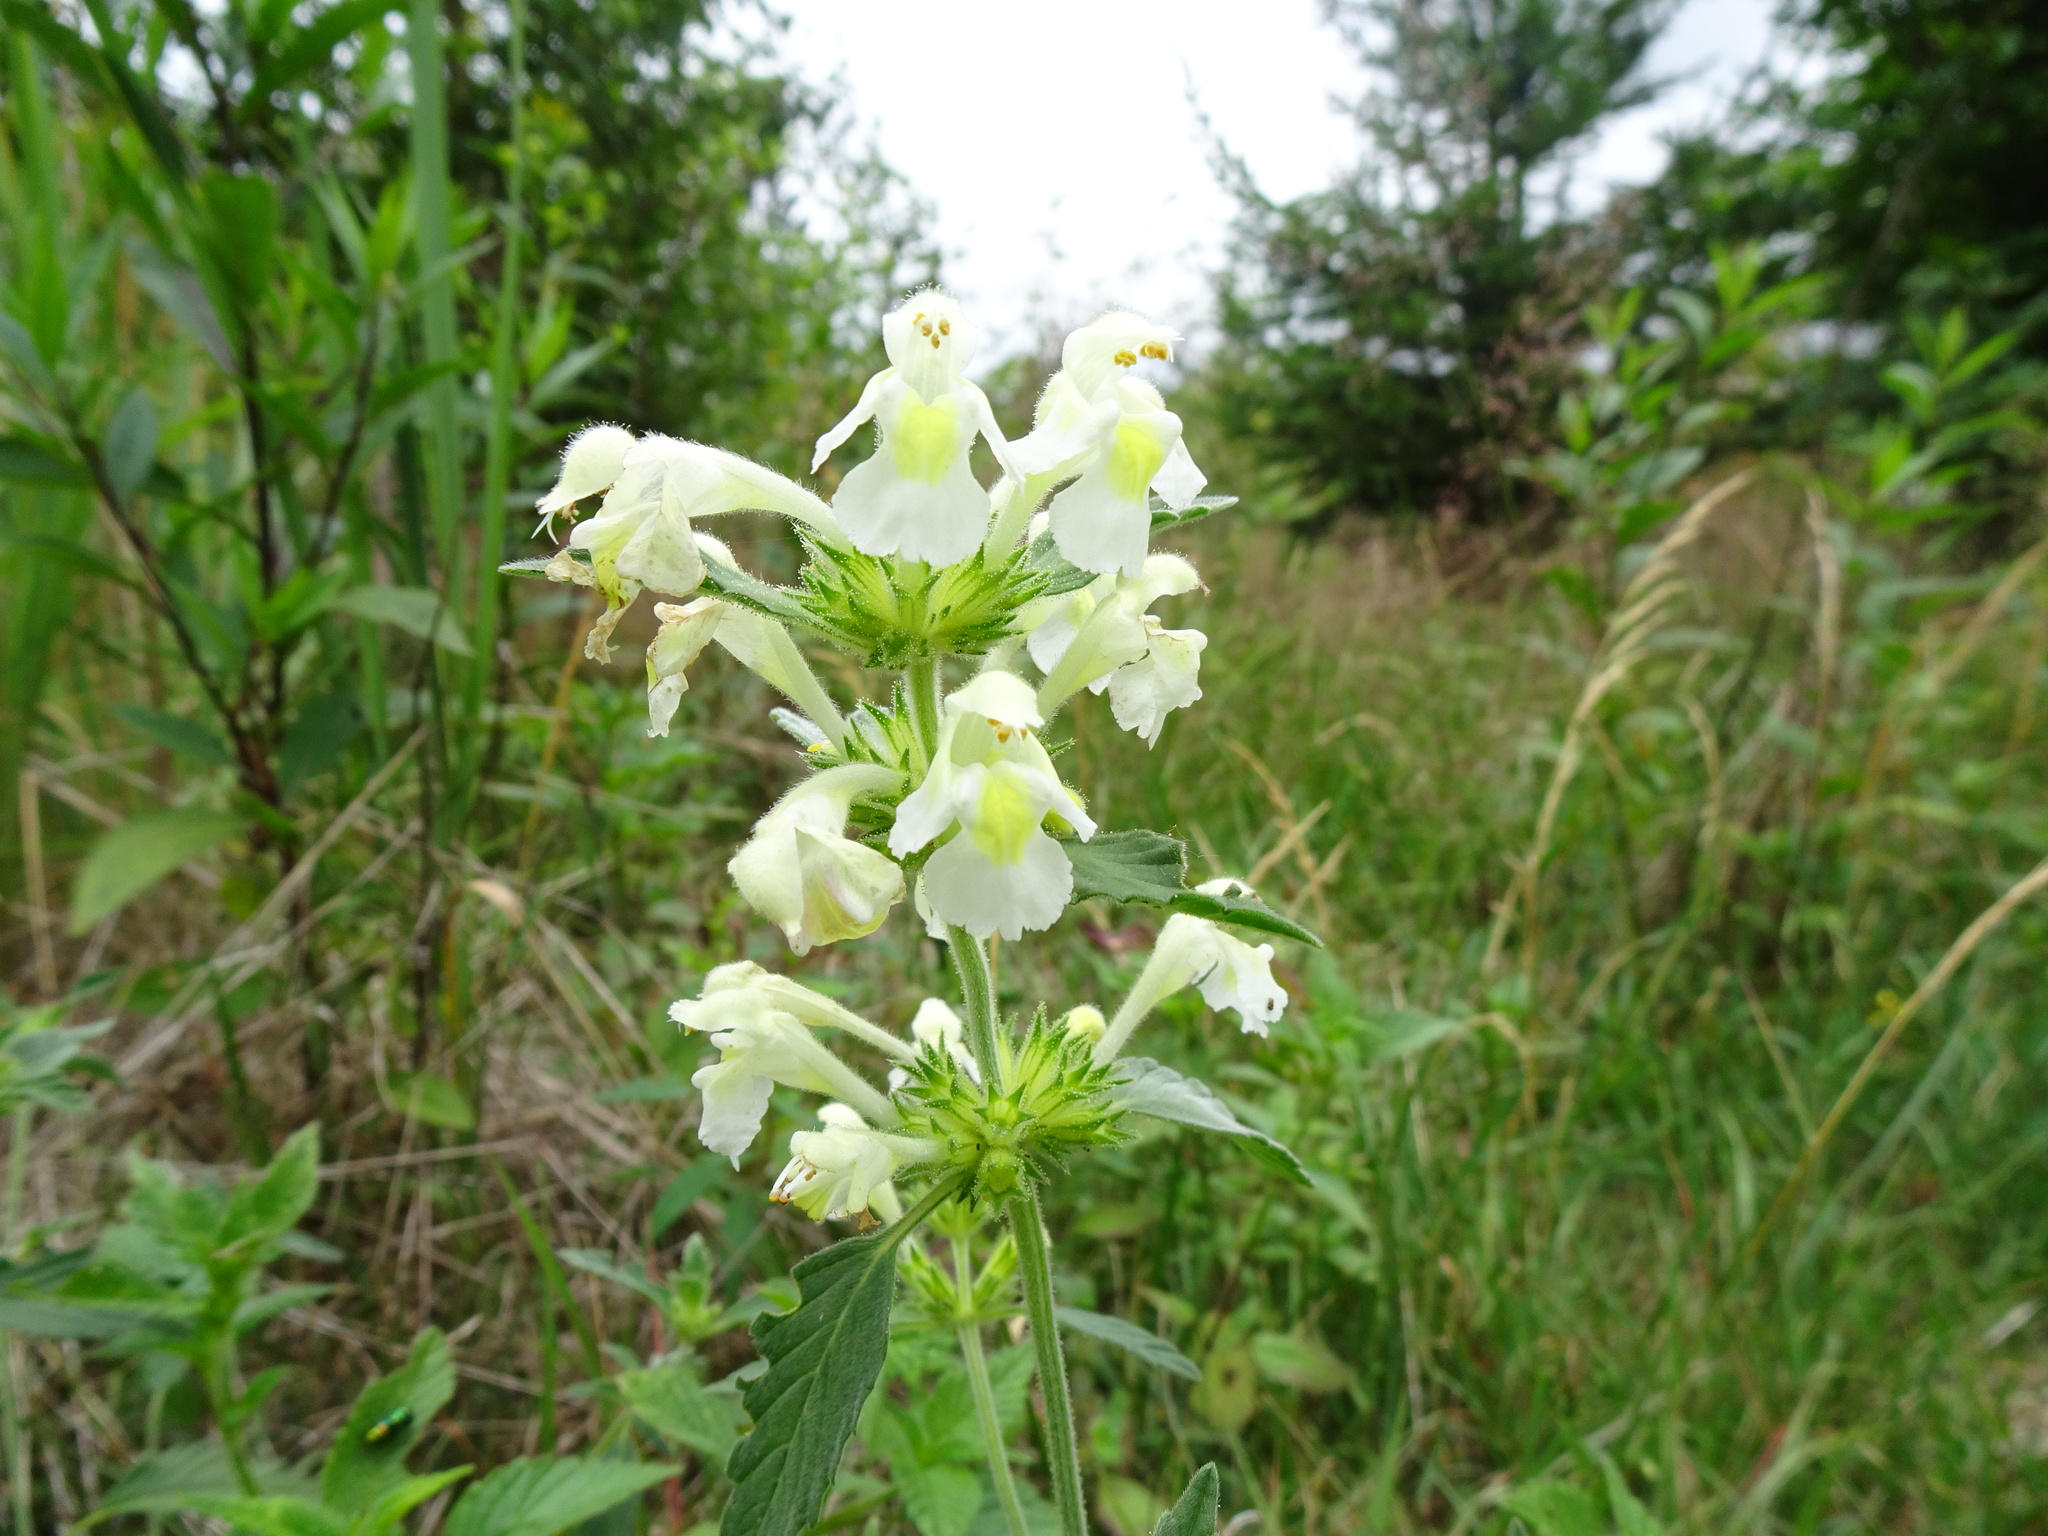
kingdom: Plantae
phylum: Tracheophyta
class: Magnoliopsida
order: Lamiales
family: Lamiaceae
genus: Galeopsis
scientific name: Galeopsis segetum
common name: Downy hemp-nettle
